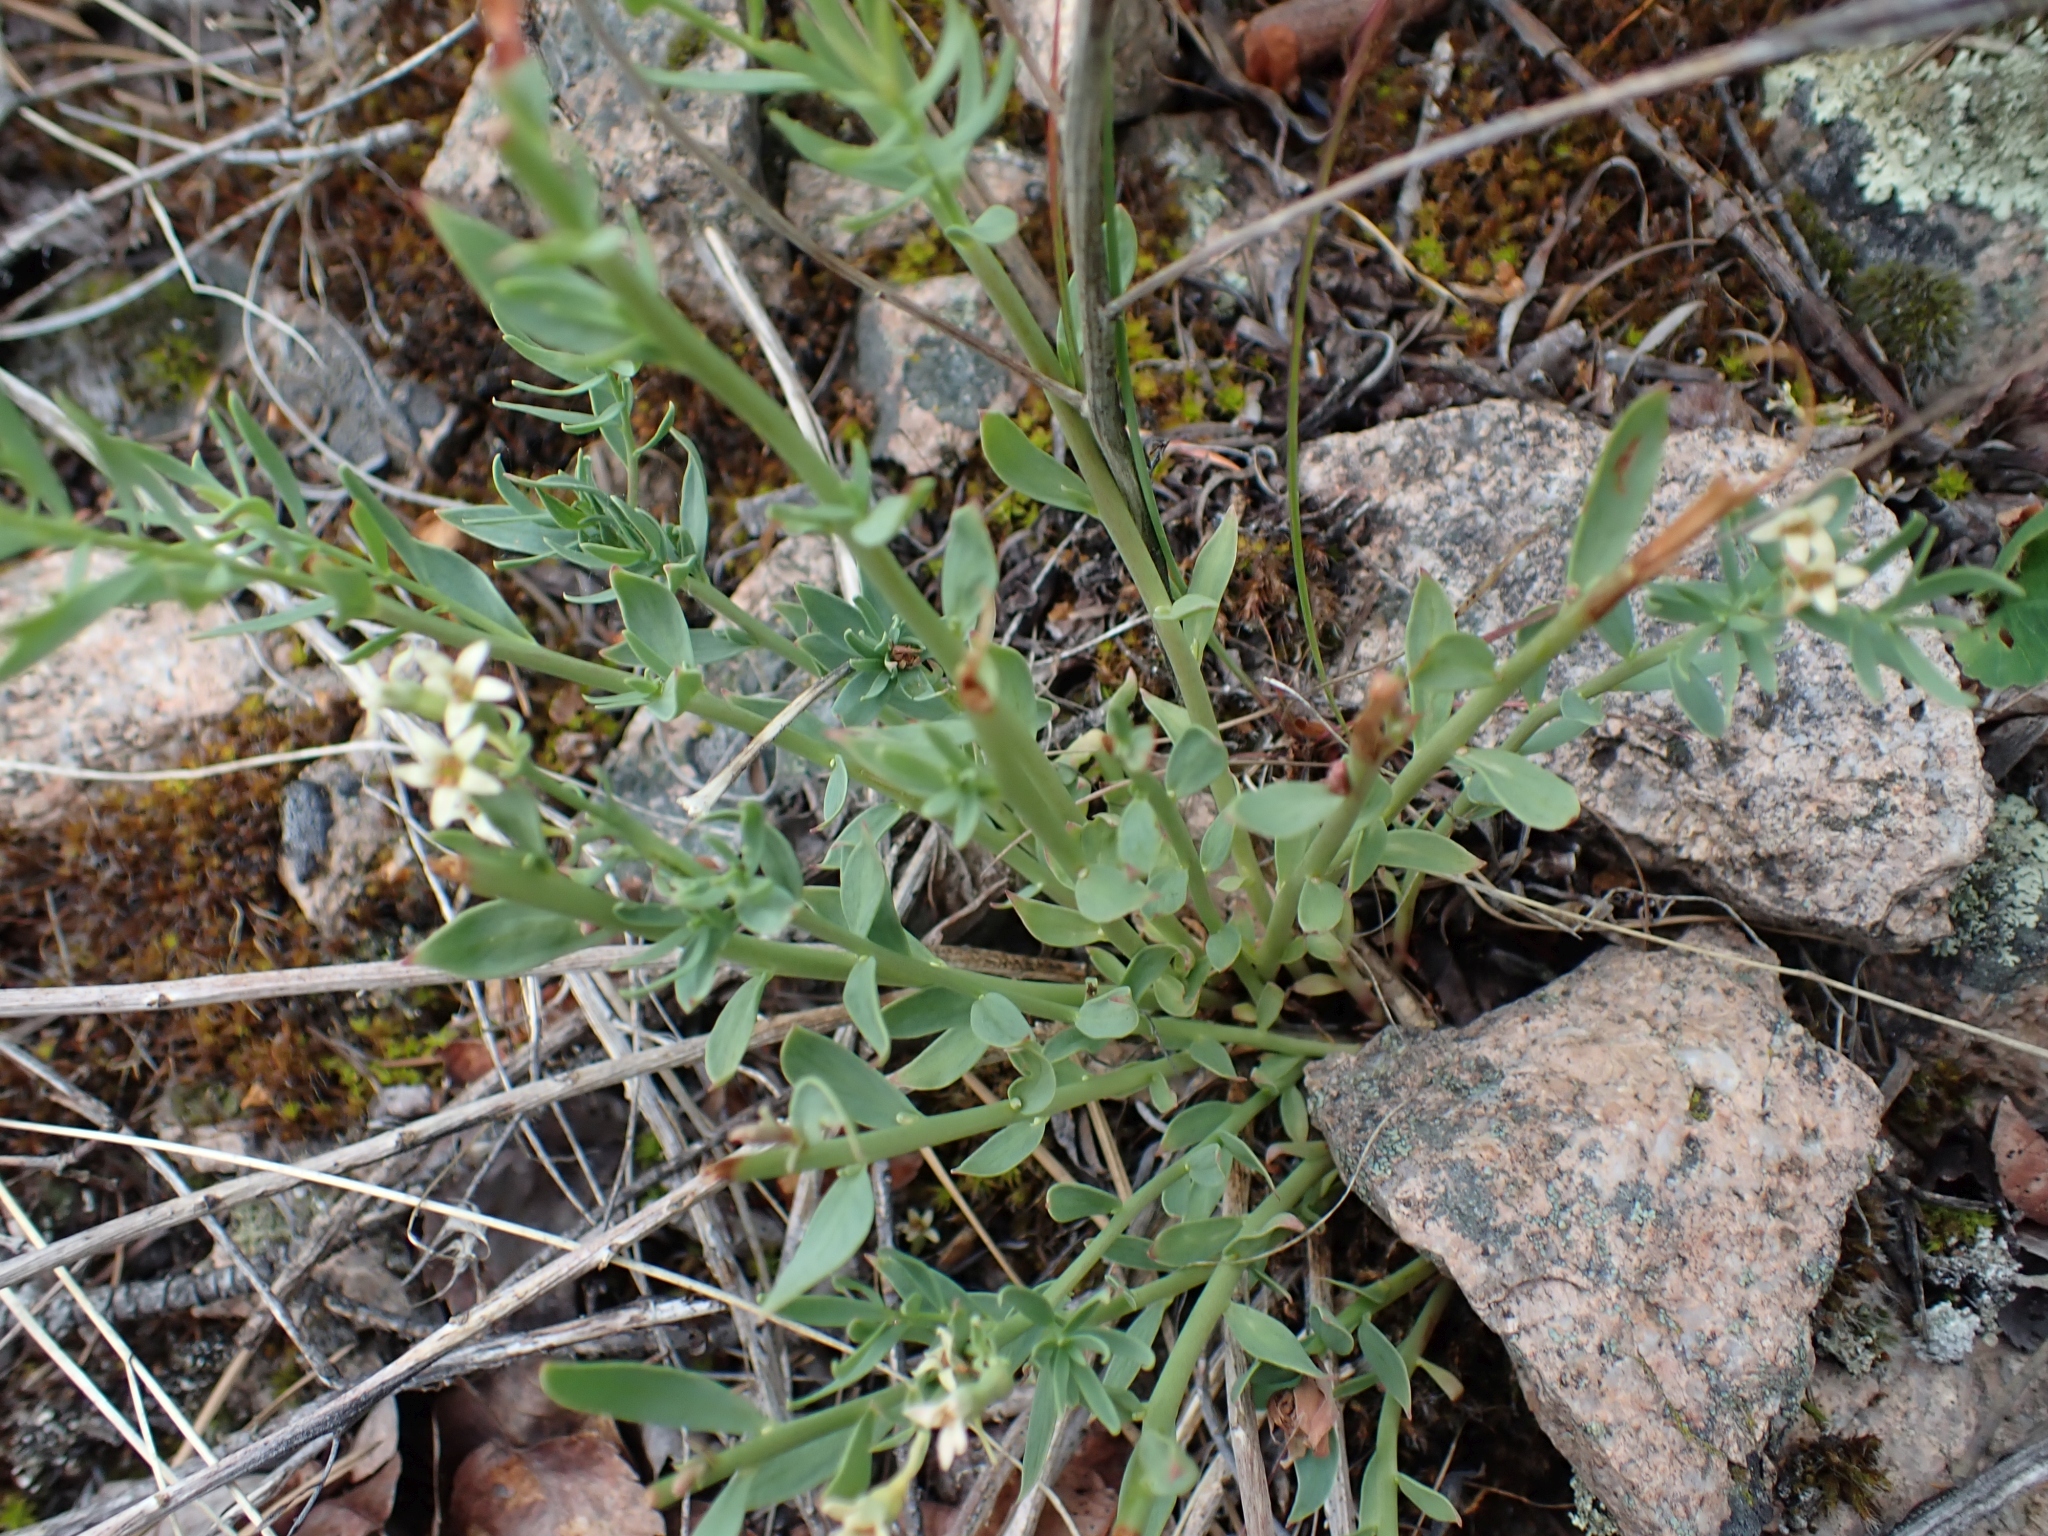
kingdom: Plantae
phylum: Tracheophyta
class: Magnoliopsida
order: Santalales
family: Comandraceae
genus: Comandra
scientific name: Comandra umbellata
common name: Bastard toadflax
